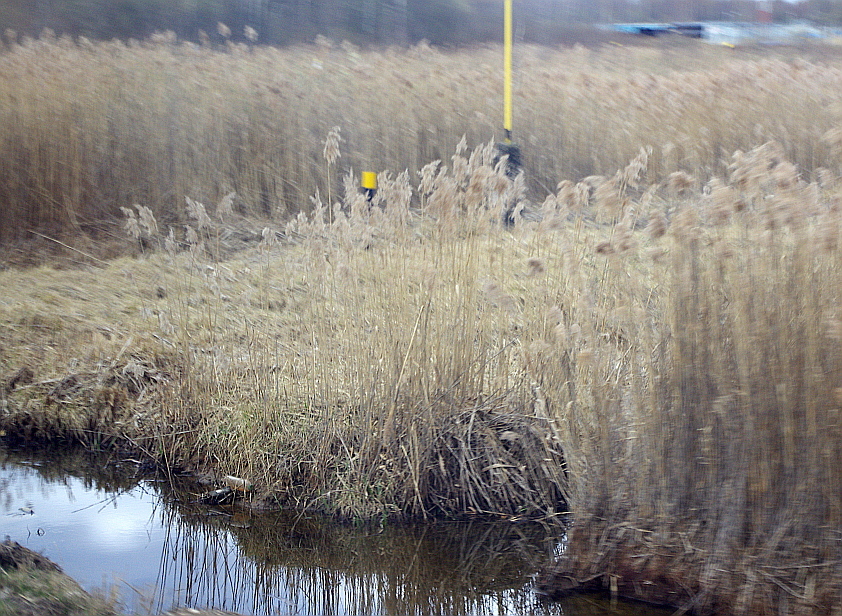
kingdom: Plantae
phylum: Tracheophyta
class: Liliopsida
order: Poales
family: Poaceae
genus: Phragmites
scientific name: Phragmites australis
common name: Common reed
